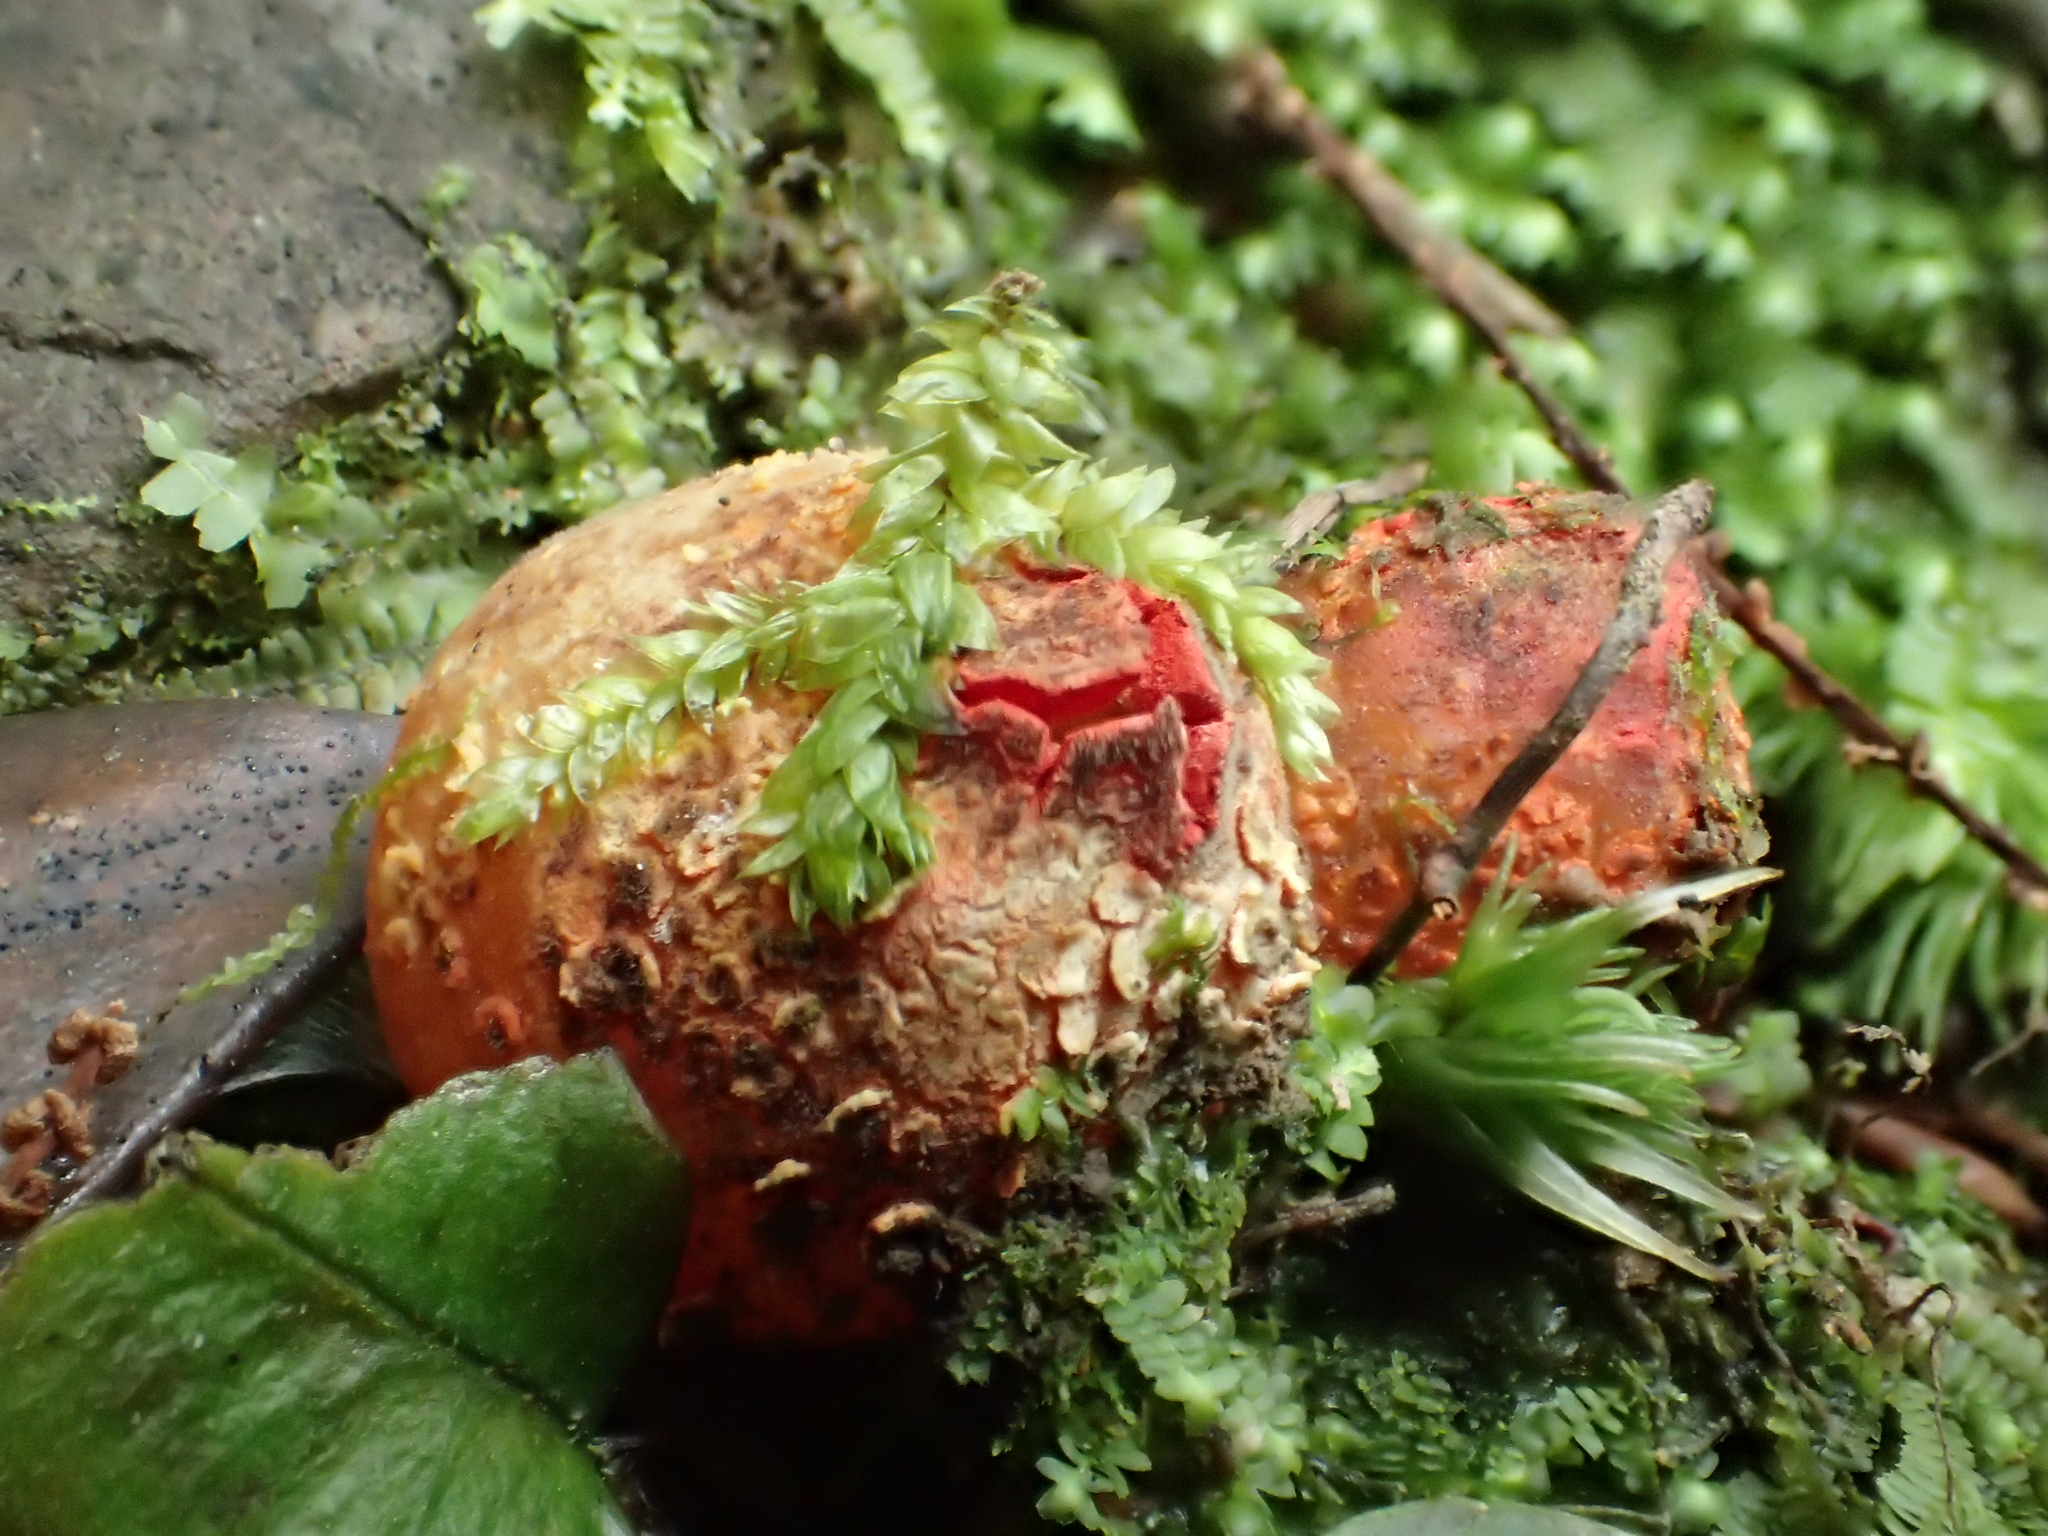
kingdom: Fungi
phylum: Basidiomycota
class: Agaricomycetes
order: Boletales
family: Calostomataceae
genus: Calostoma
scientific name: Calostoma japonicum
